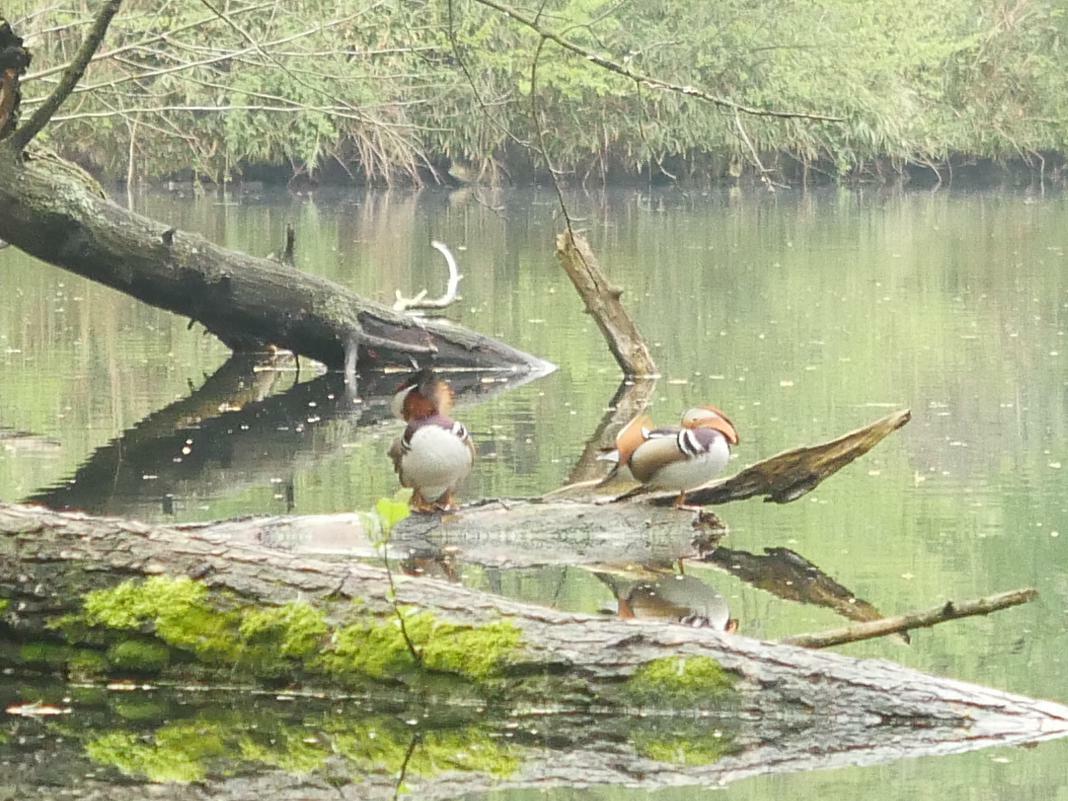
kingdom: Animalia
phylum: Chordata
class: Aves
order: Anseriformes
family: Anatidae
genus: Aix
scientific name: Aix galericulata
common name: Mandarin duck
